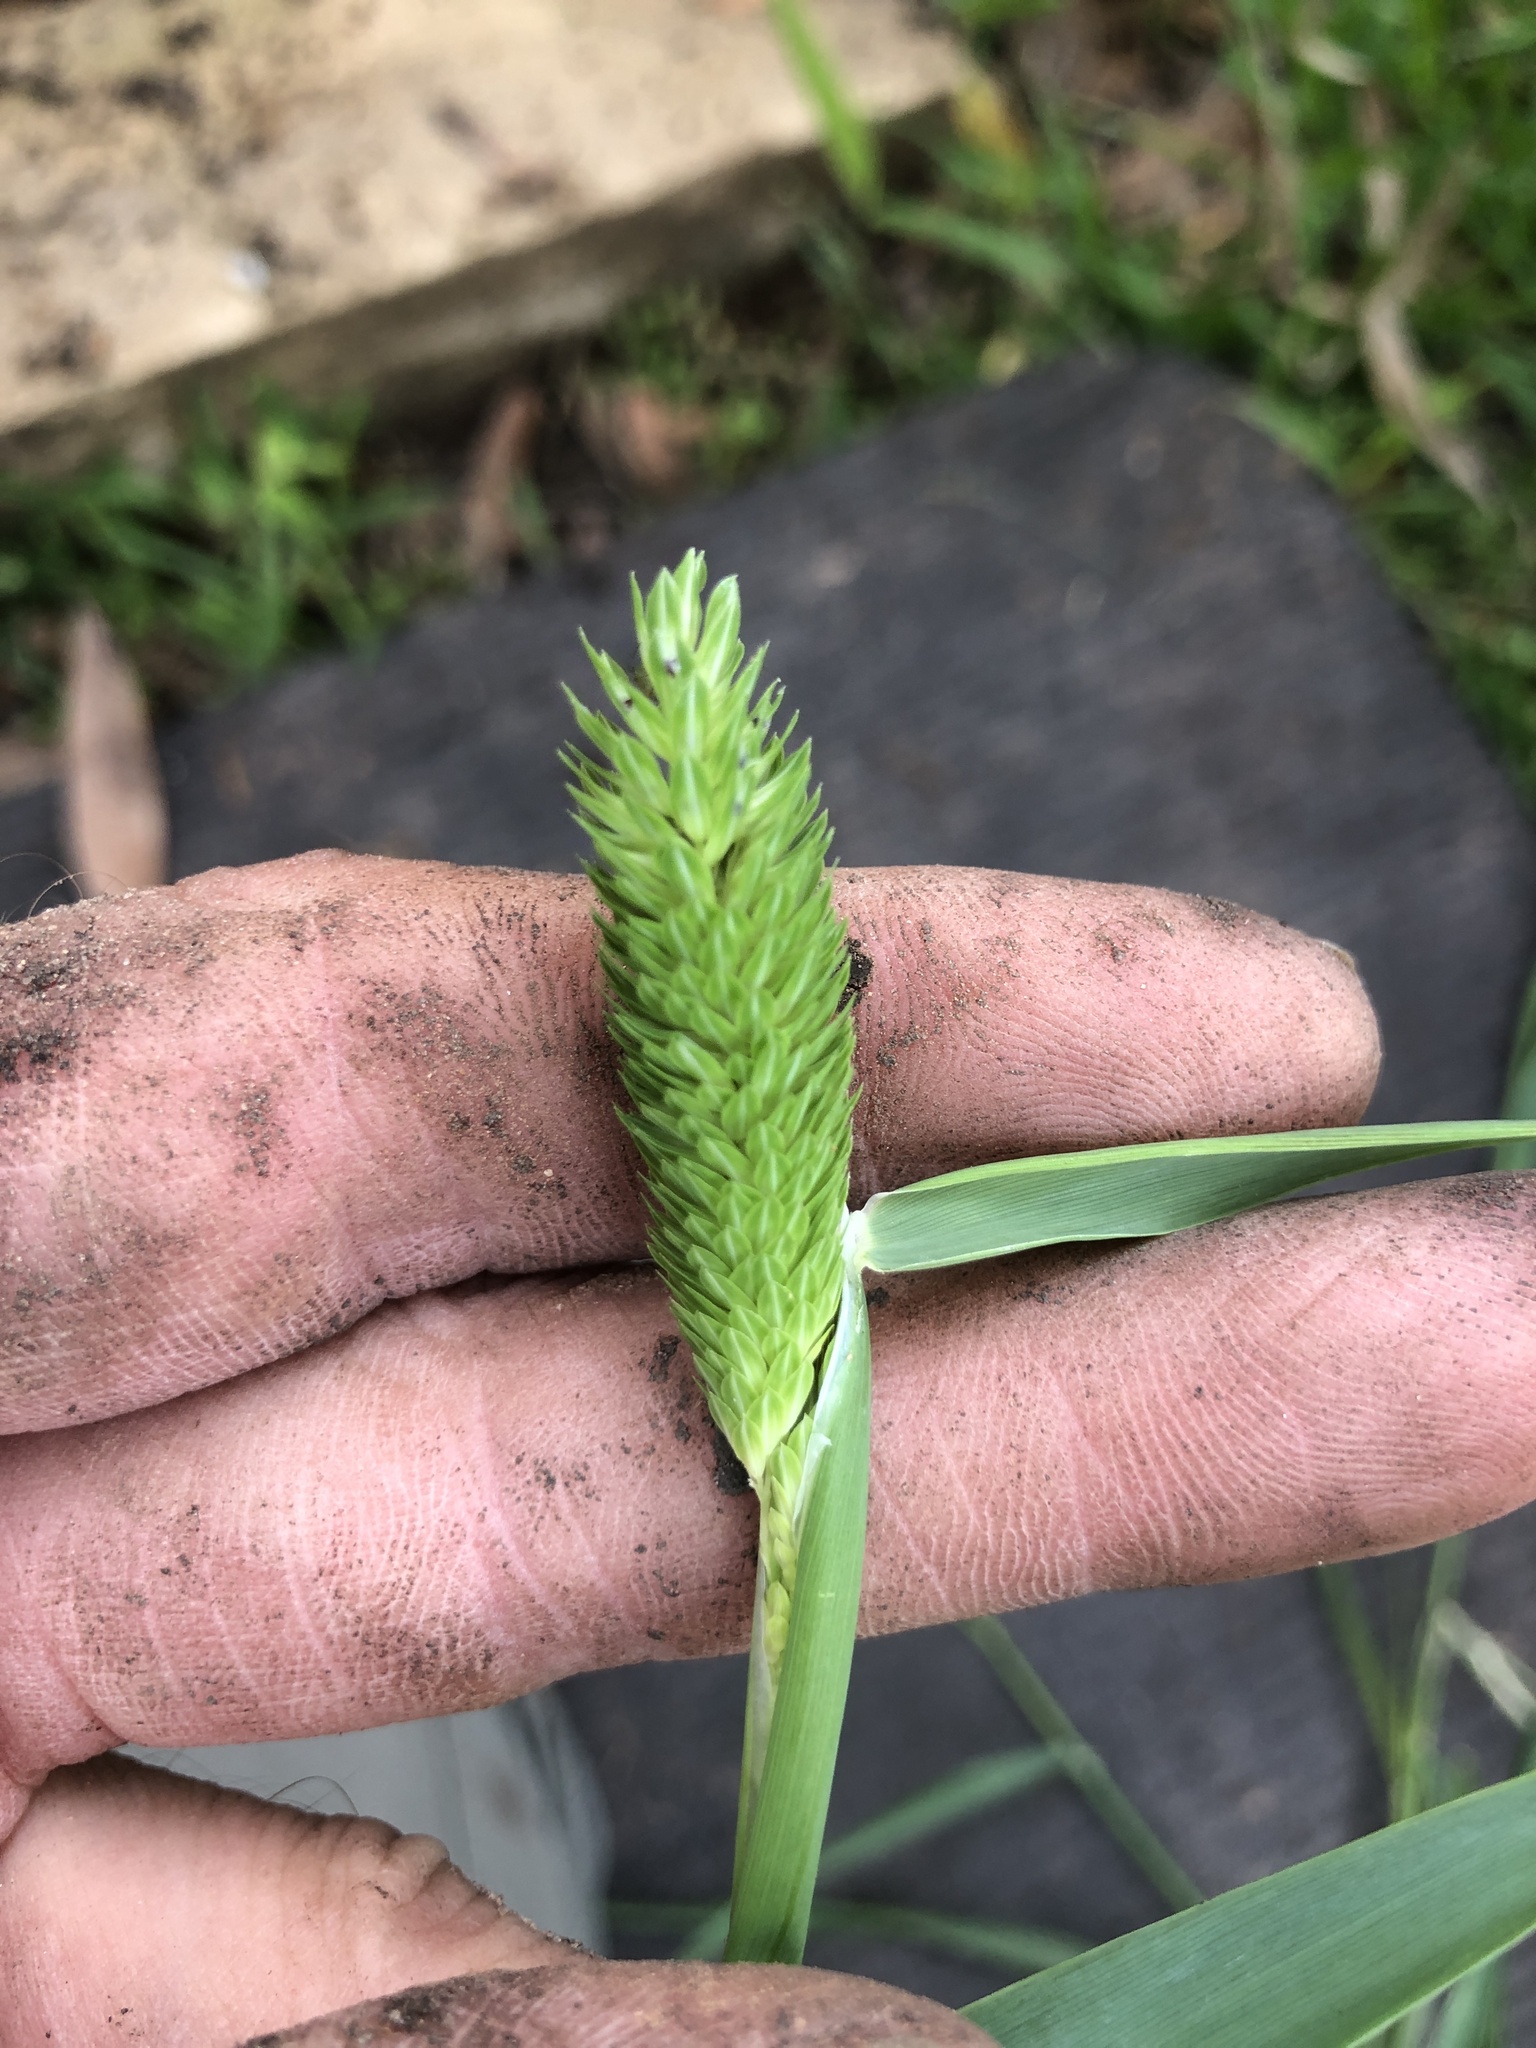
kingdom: Plantae
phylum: Tracheophyta
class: Liliopsida
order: Poales
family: Poaceae
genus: Phalaris
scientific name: Phalaris caroliniana
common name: May grass
